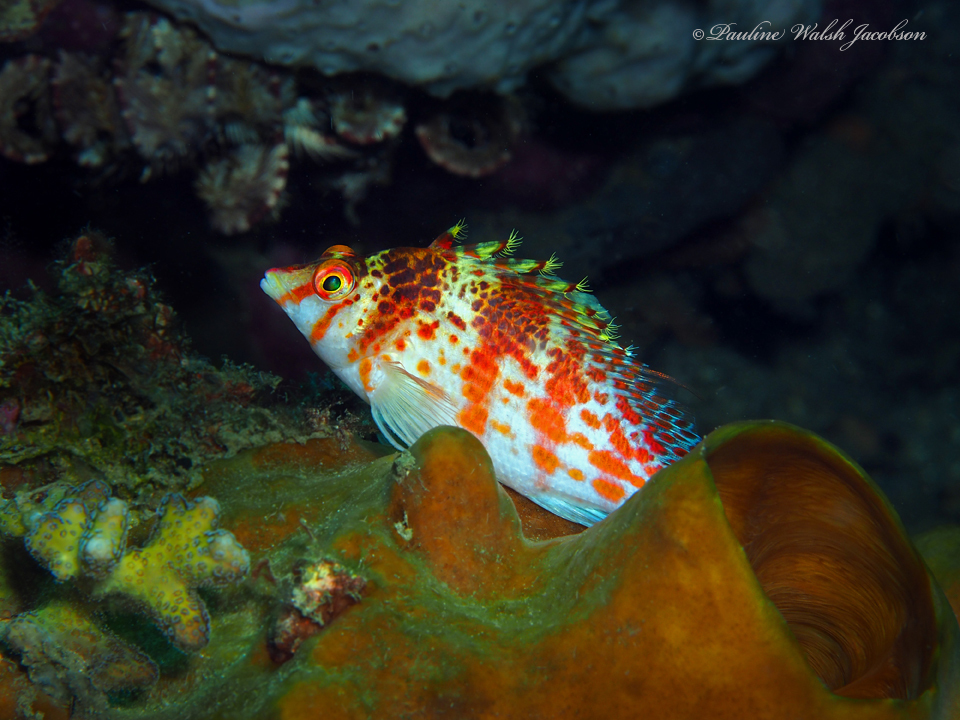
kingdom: Animalia
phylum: Chordata
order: Perciformes
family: Cirrhitidae
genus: Cirrhitichthys
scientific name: Cirrhitichthys falco
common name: Coral hawkfish
